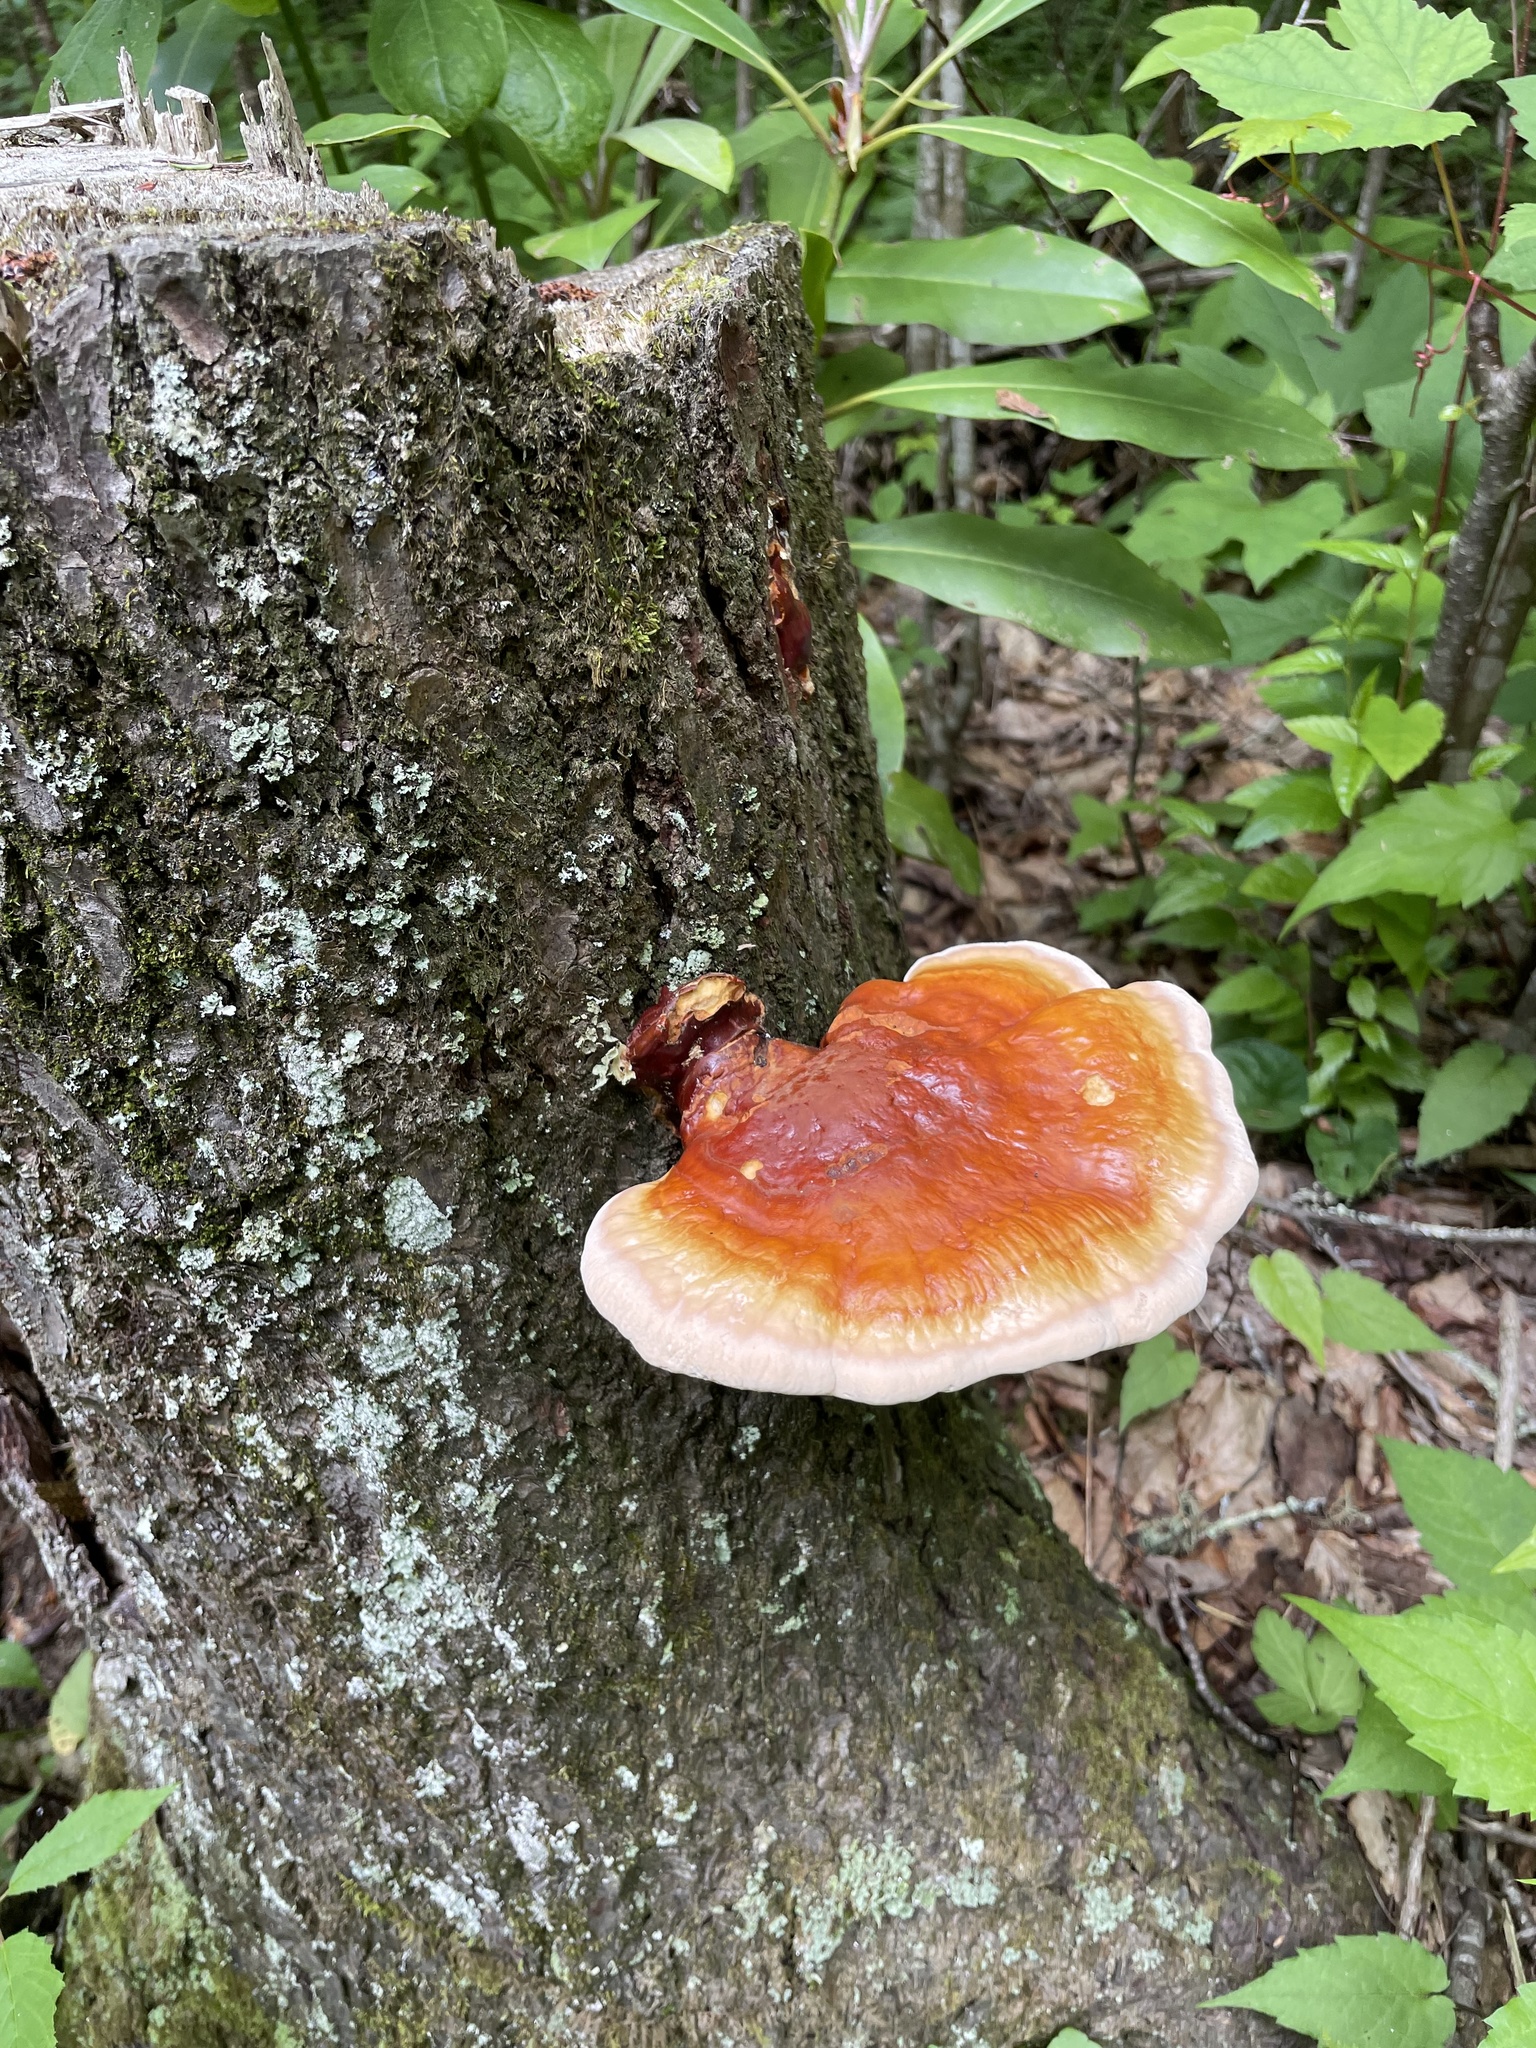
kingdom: Fungi
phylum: Basidiomycota
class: Agaricomycetes
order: Polyporales
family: Polyporaceae
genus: Ganoderma
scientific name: Ganoderma tsugae
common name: Hemlock varnish shelf
